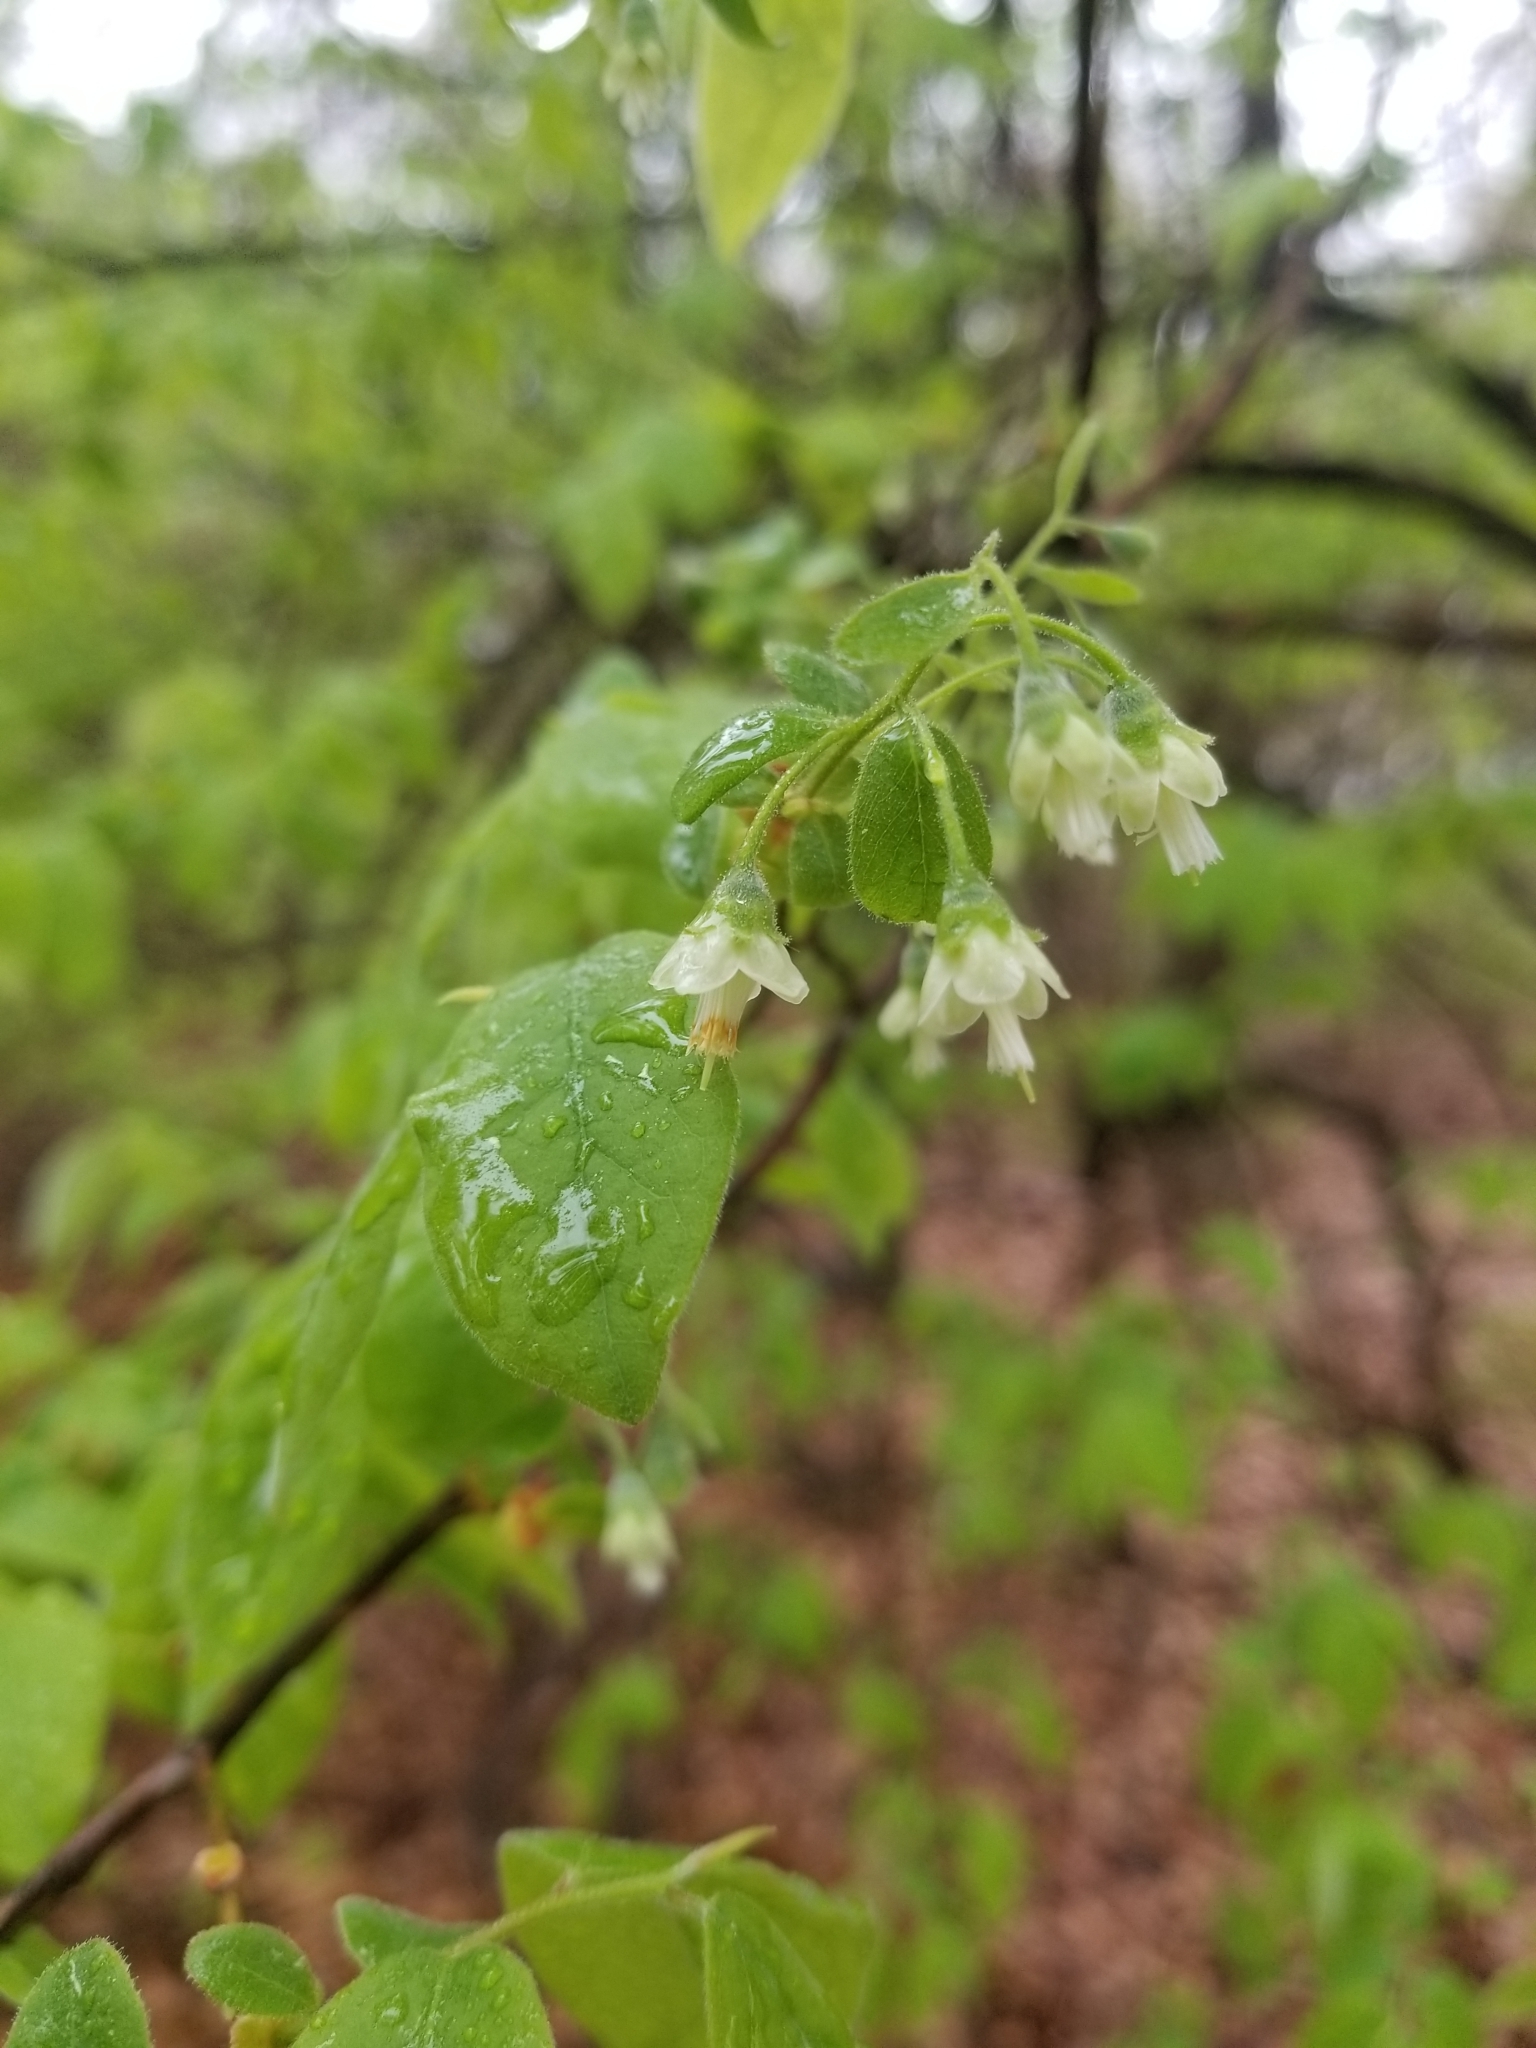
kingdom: Plantae
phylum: Tracheophyta
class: Magnoliopsida
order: Ericales
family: Ericaceae
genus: Vaccinium
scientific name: Vaccinium stamineum
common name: Deerberry
